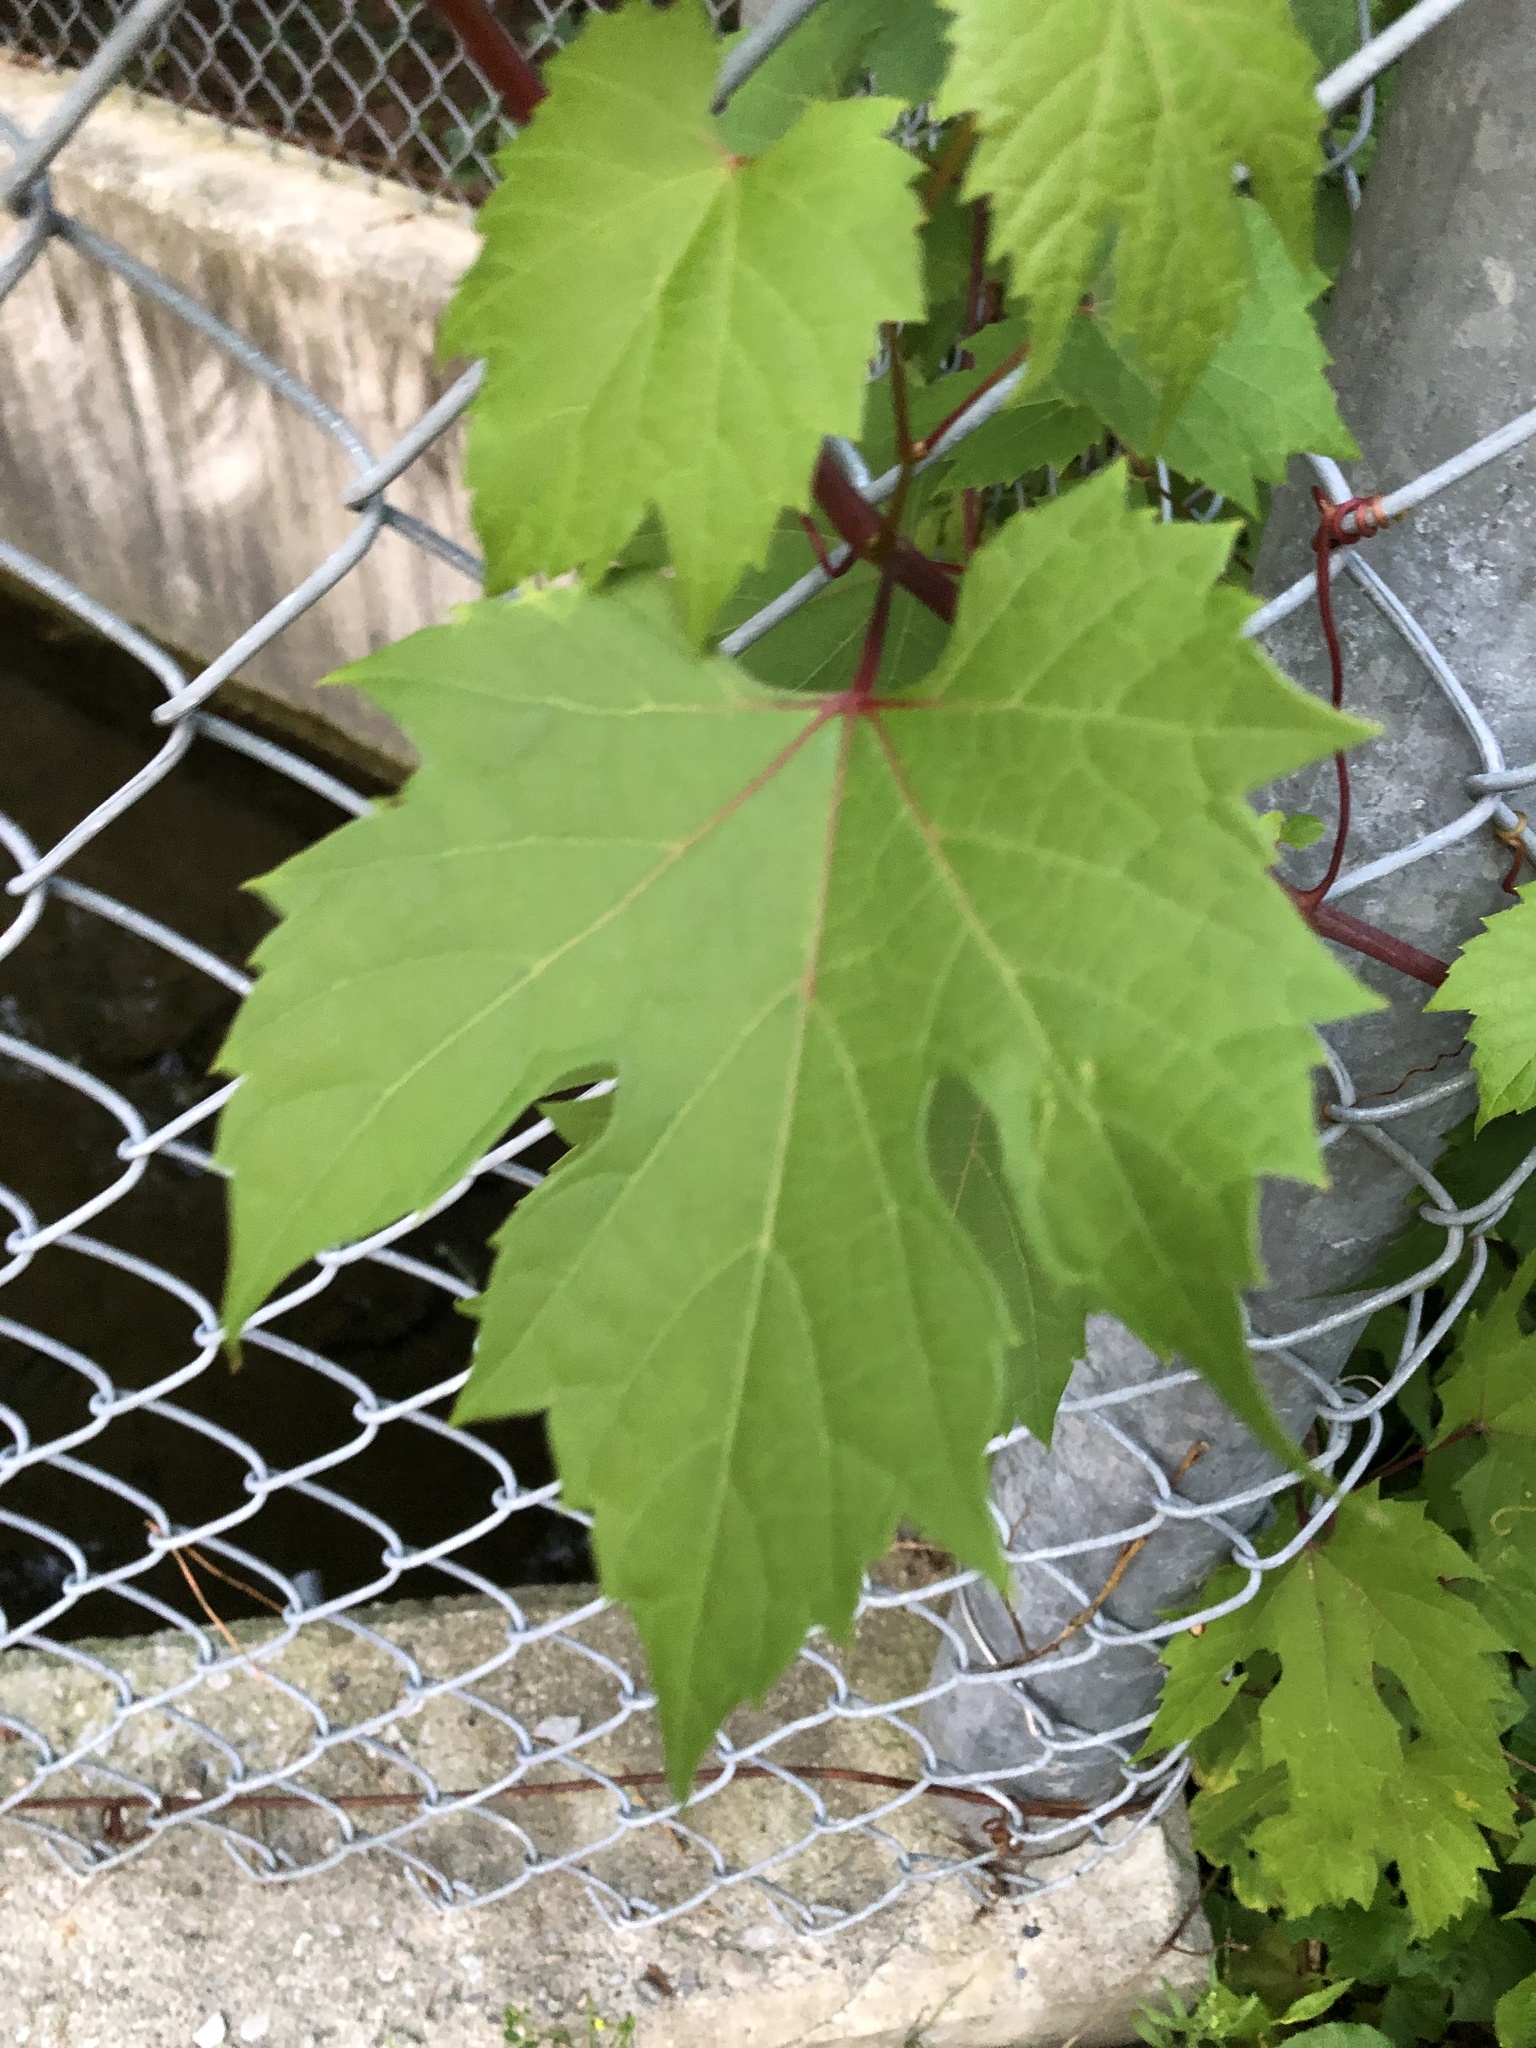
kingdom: Plantae
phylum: Tracheophyta
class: Magnoliopsida
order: Vitales
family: Vitaceae
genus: Vitis
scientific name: Vitis riparia
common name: Frost grape
